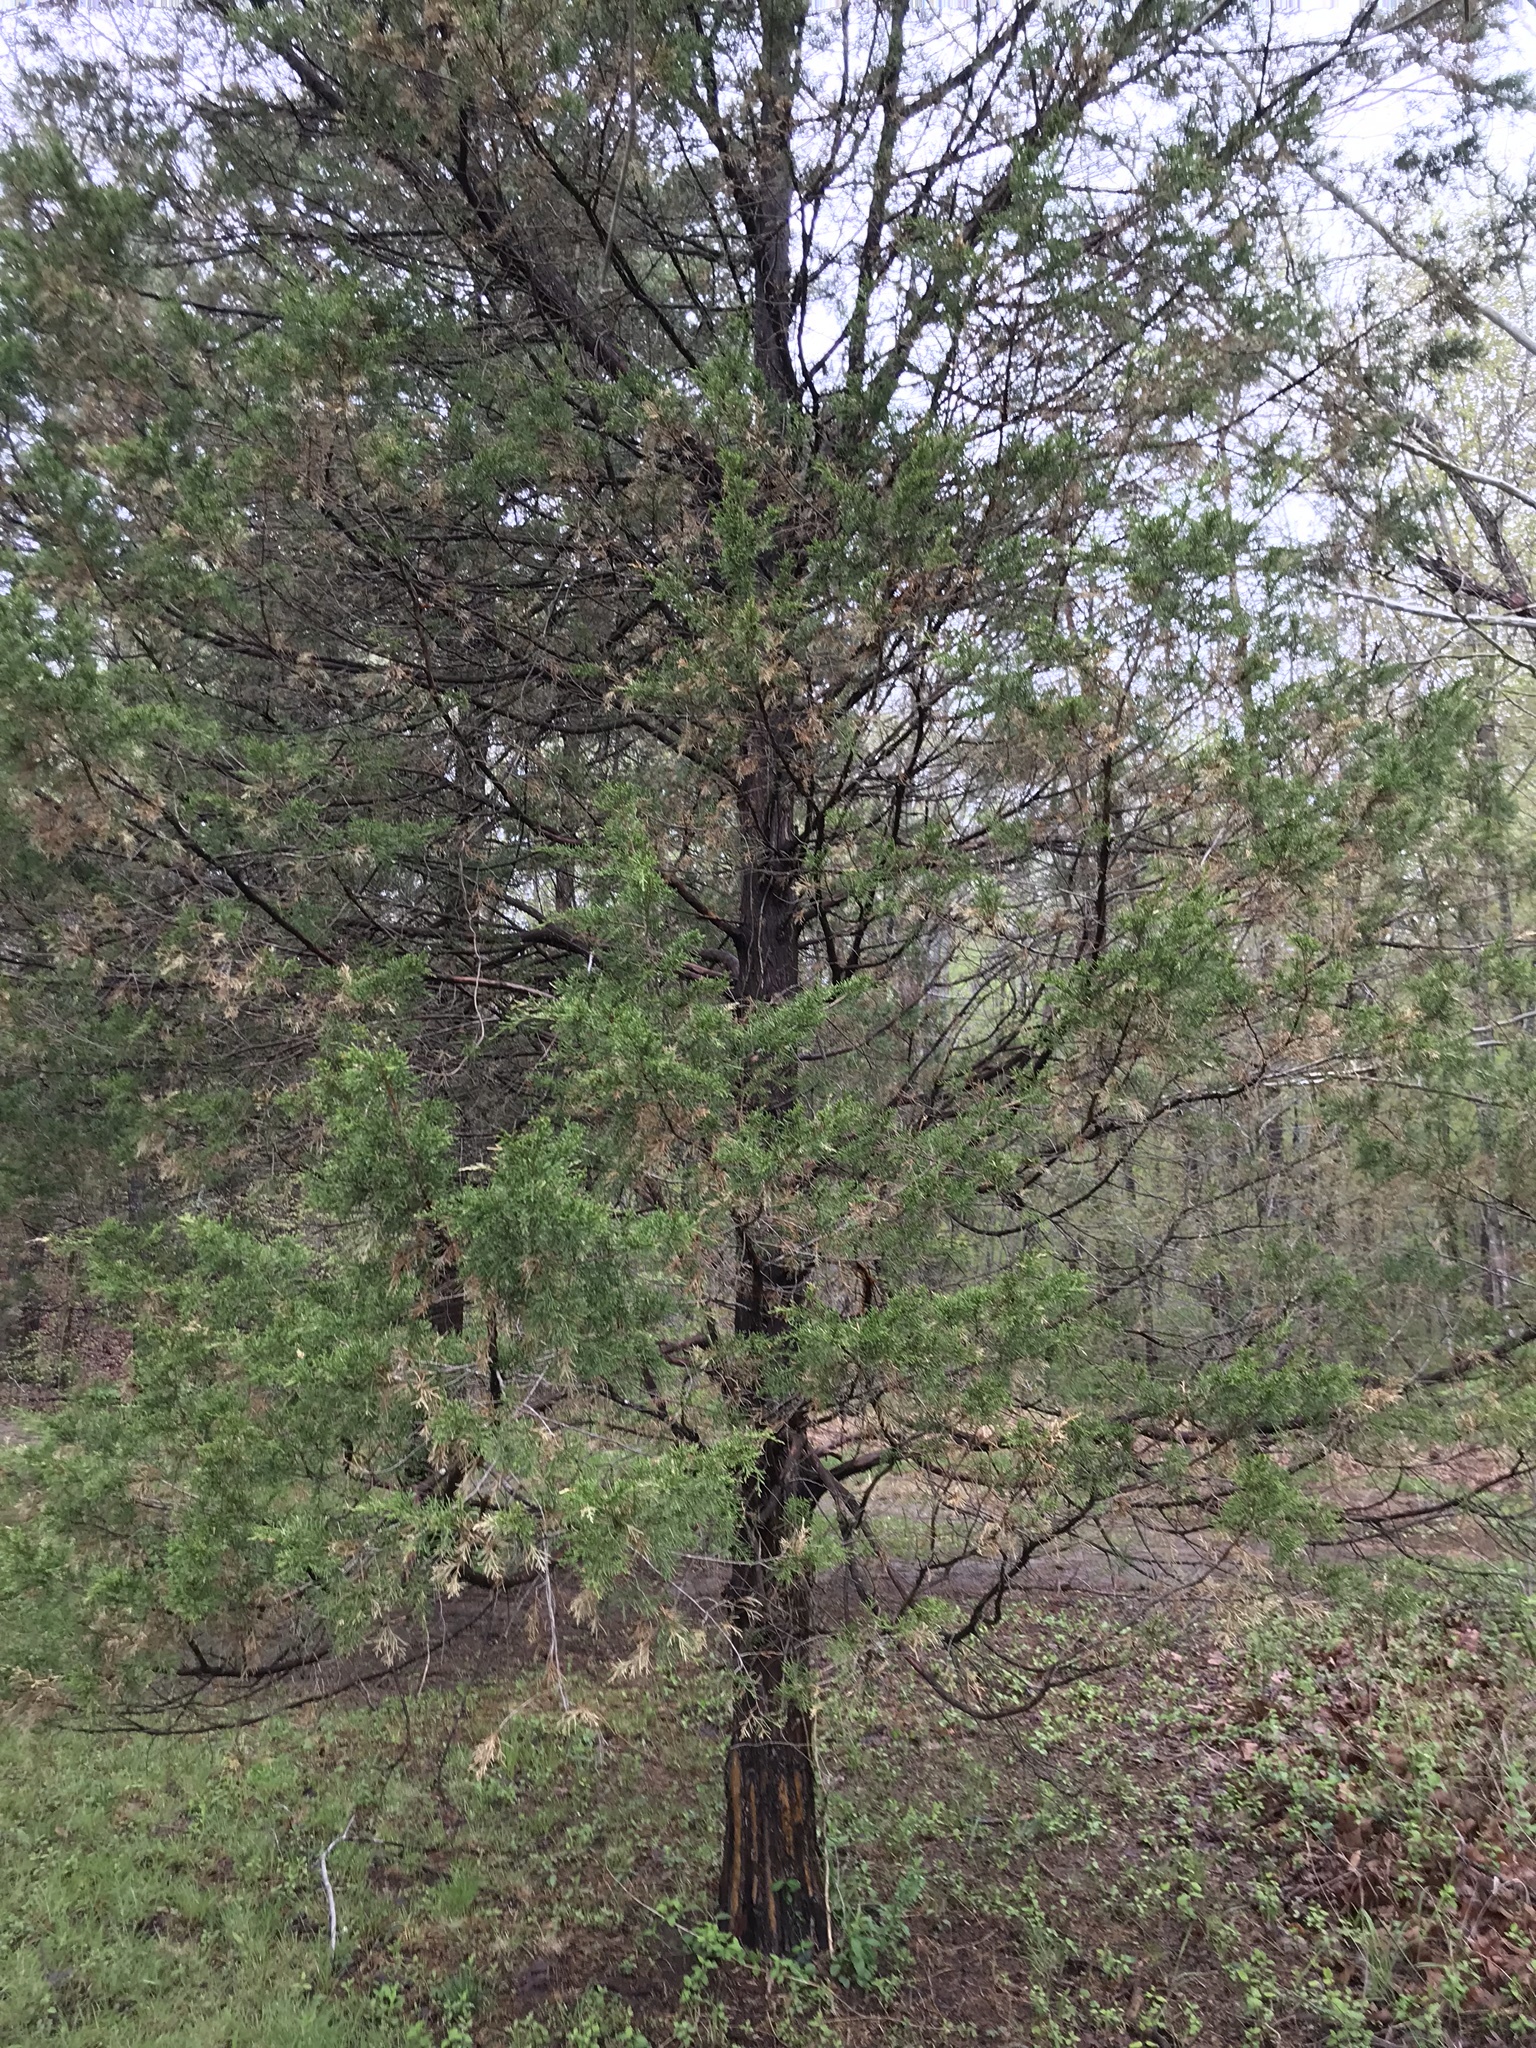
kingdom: Plantae
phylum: Tracheophyta
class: Pinopsida
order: Pinales
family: Cupressaceae
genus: Juniperus
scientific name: Juniperus virginiana
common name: Red juniper
